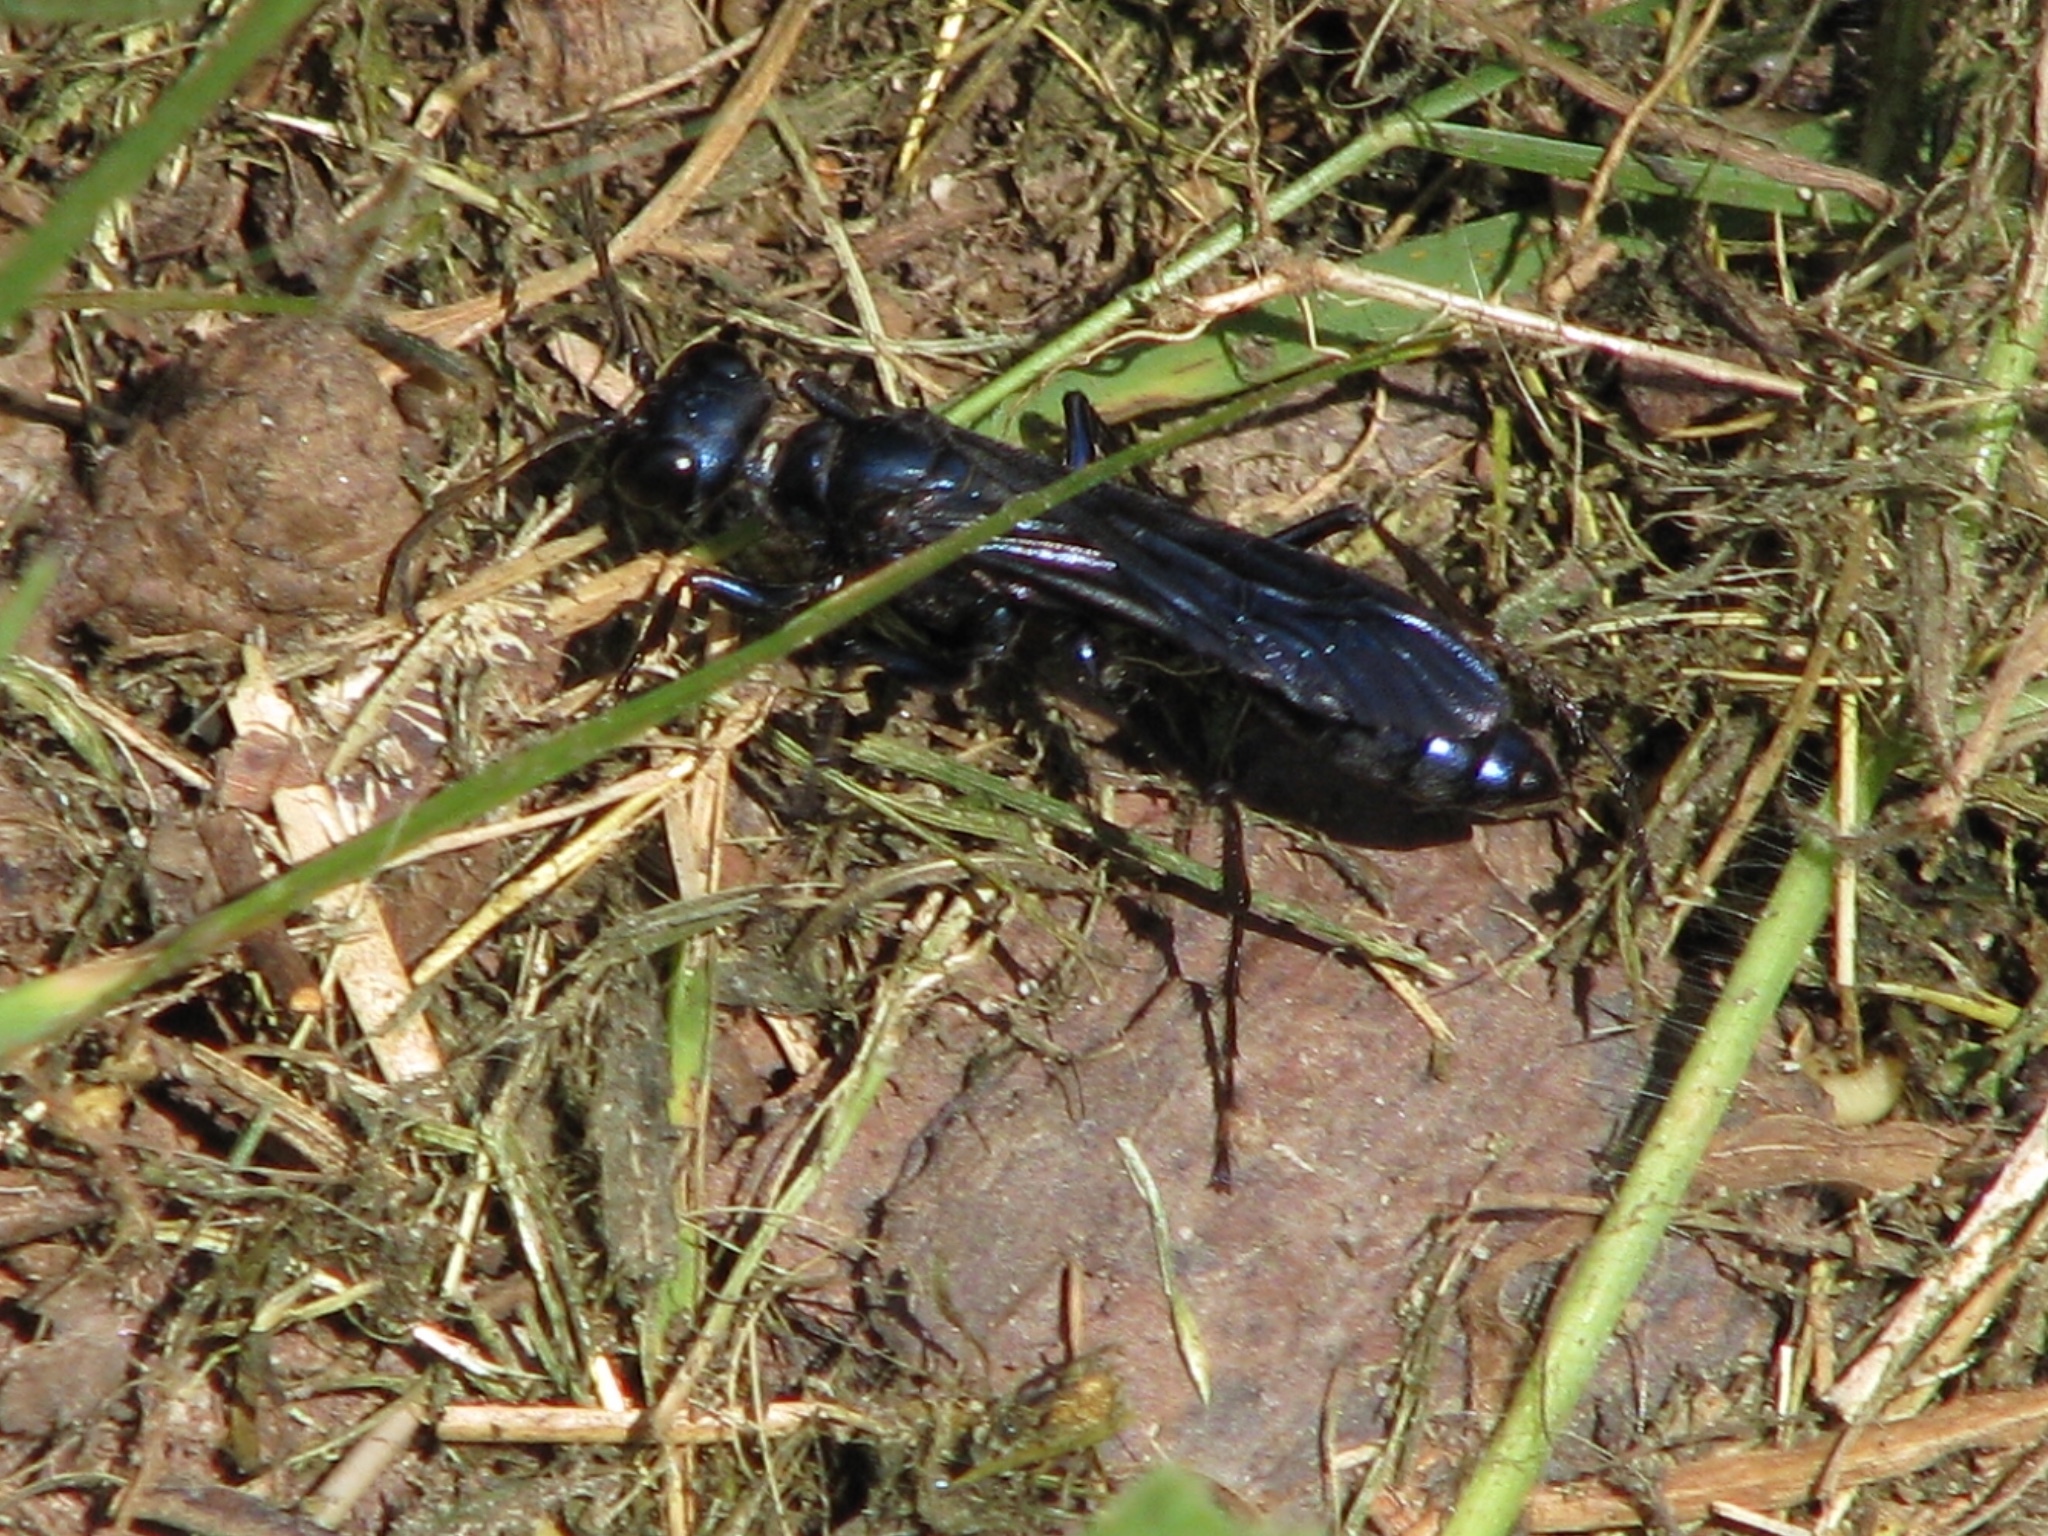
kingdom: Animalia
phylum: Arthropoda
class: Insecta
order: Hymenoptera
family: Sphecidae
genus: Chlorion
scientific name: Chlorion aerarium
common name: Steel-blue cricket hunter
